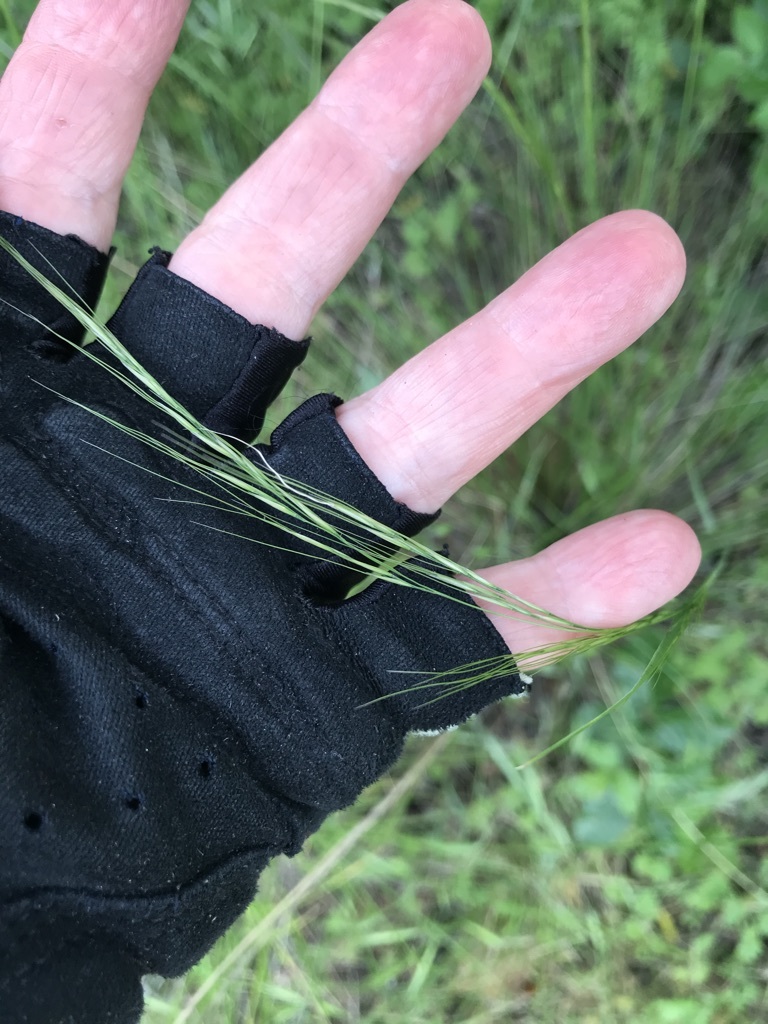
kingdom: Plantae
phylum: Tracheophyta
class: Liliopsida
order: Poales
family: Poaceae
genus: Nassella
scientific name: Nassella lepida
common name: Foothill needlegrass
